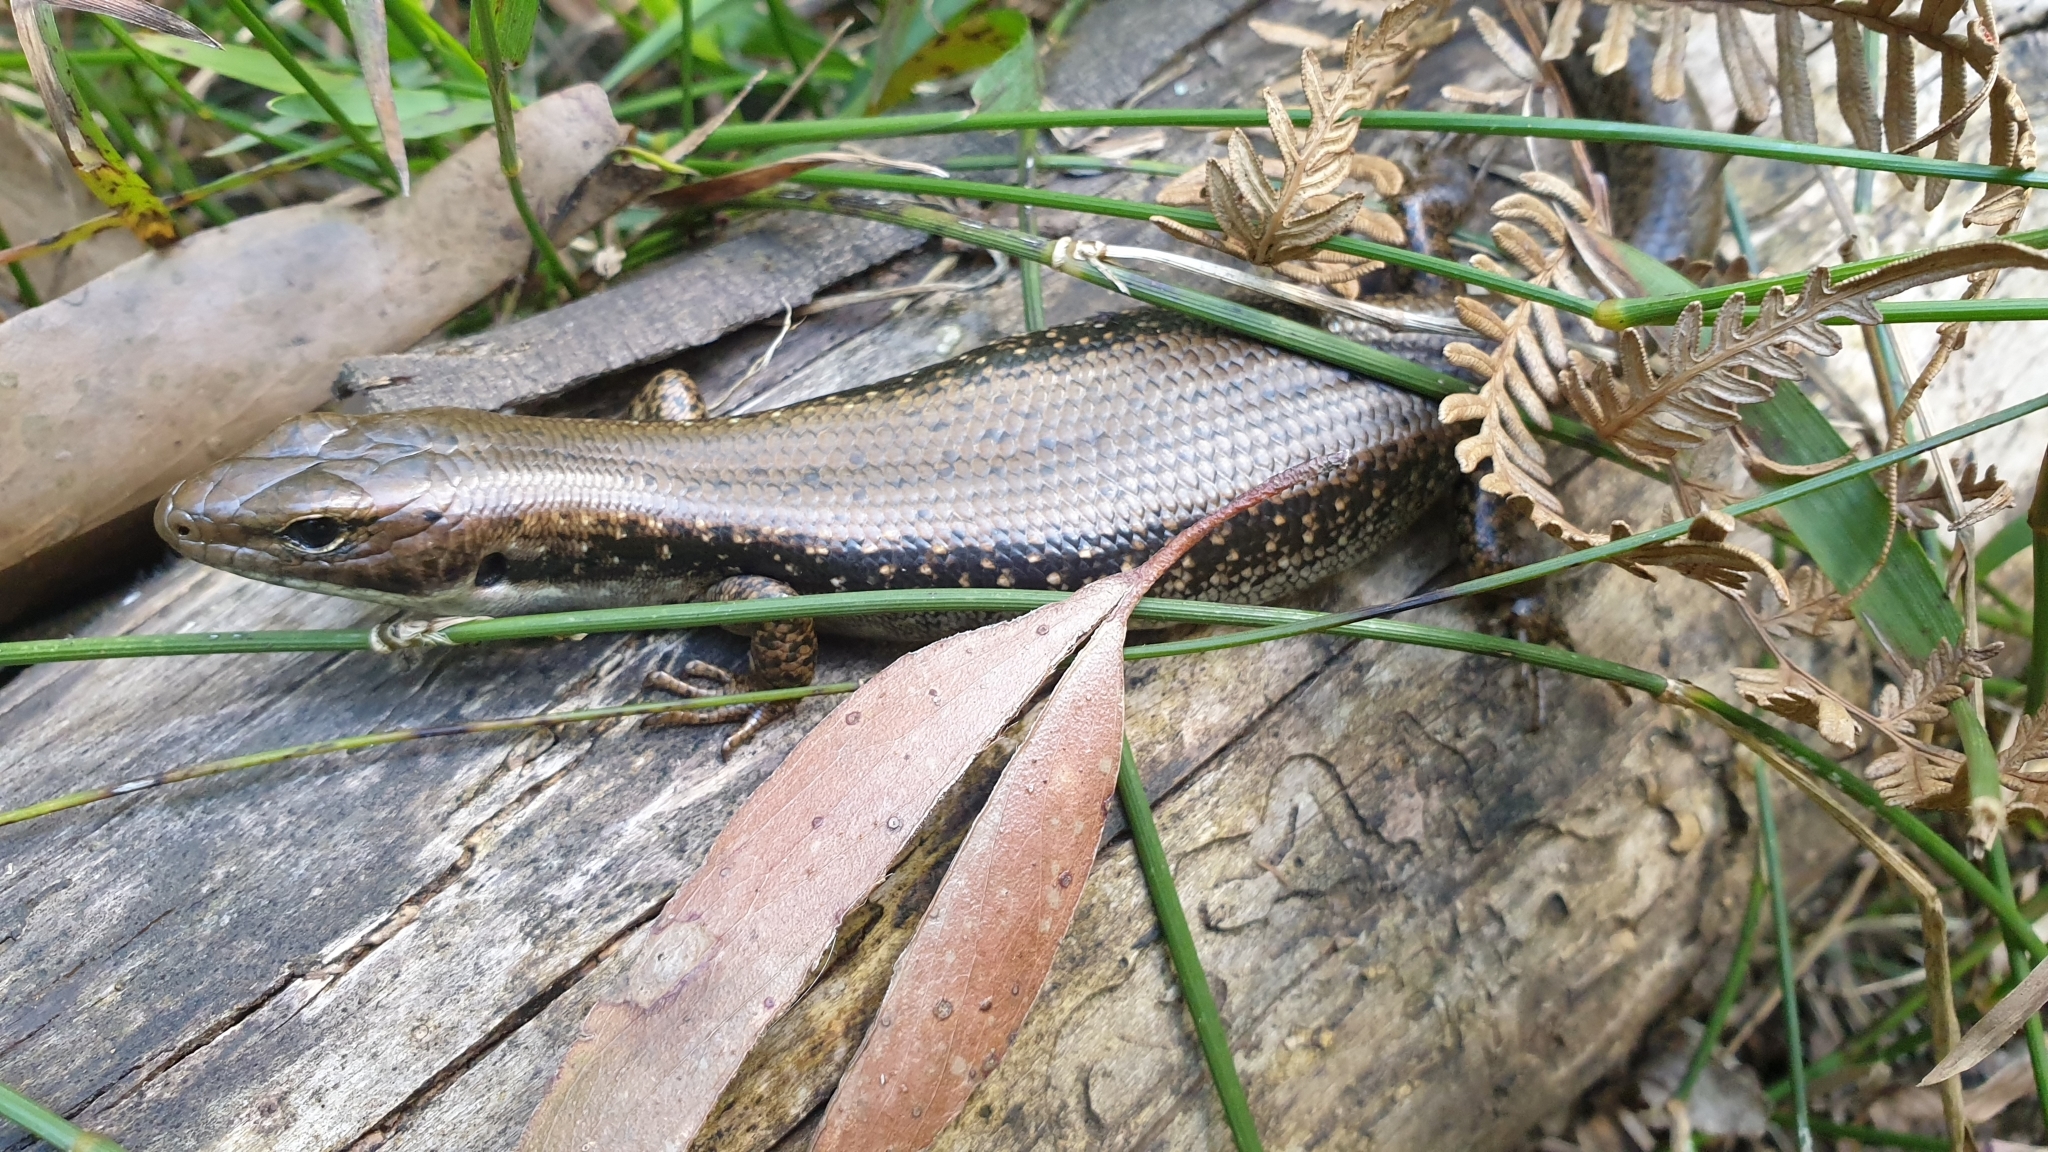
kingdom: Animalia
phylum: Chordata
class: Squamata
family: Scincidae
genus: Eulamprus
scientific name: Eulamprus tympanum
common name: Cool-temperate water-skink
